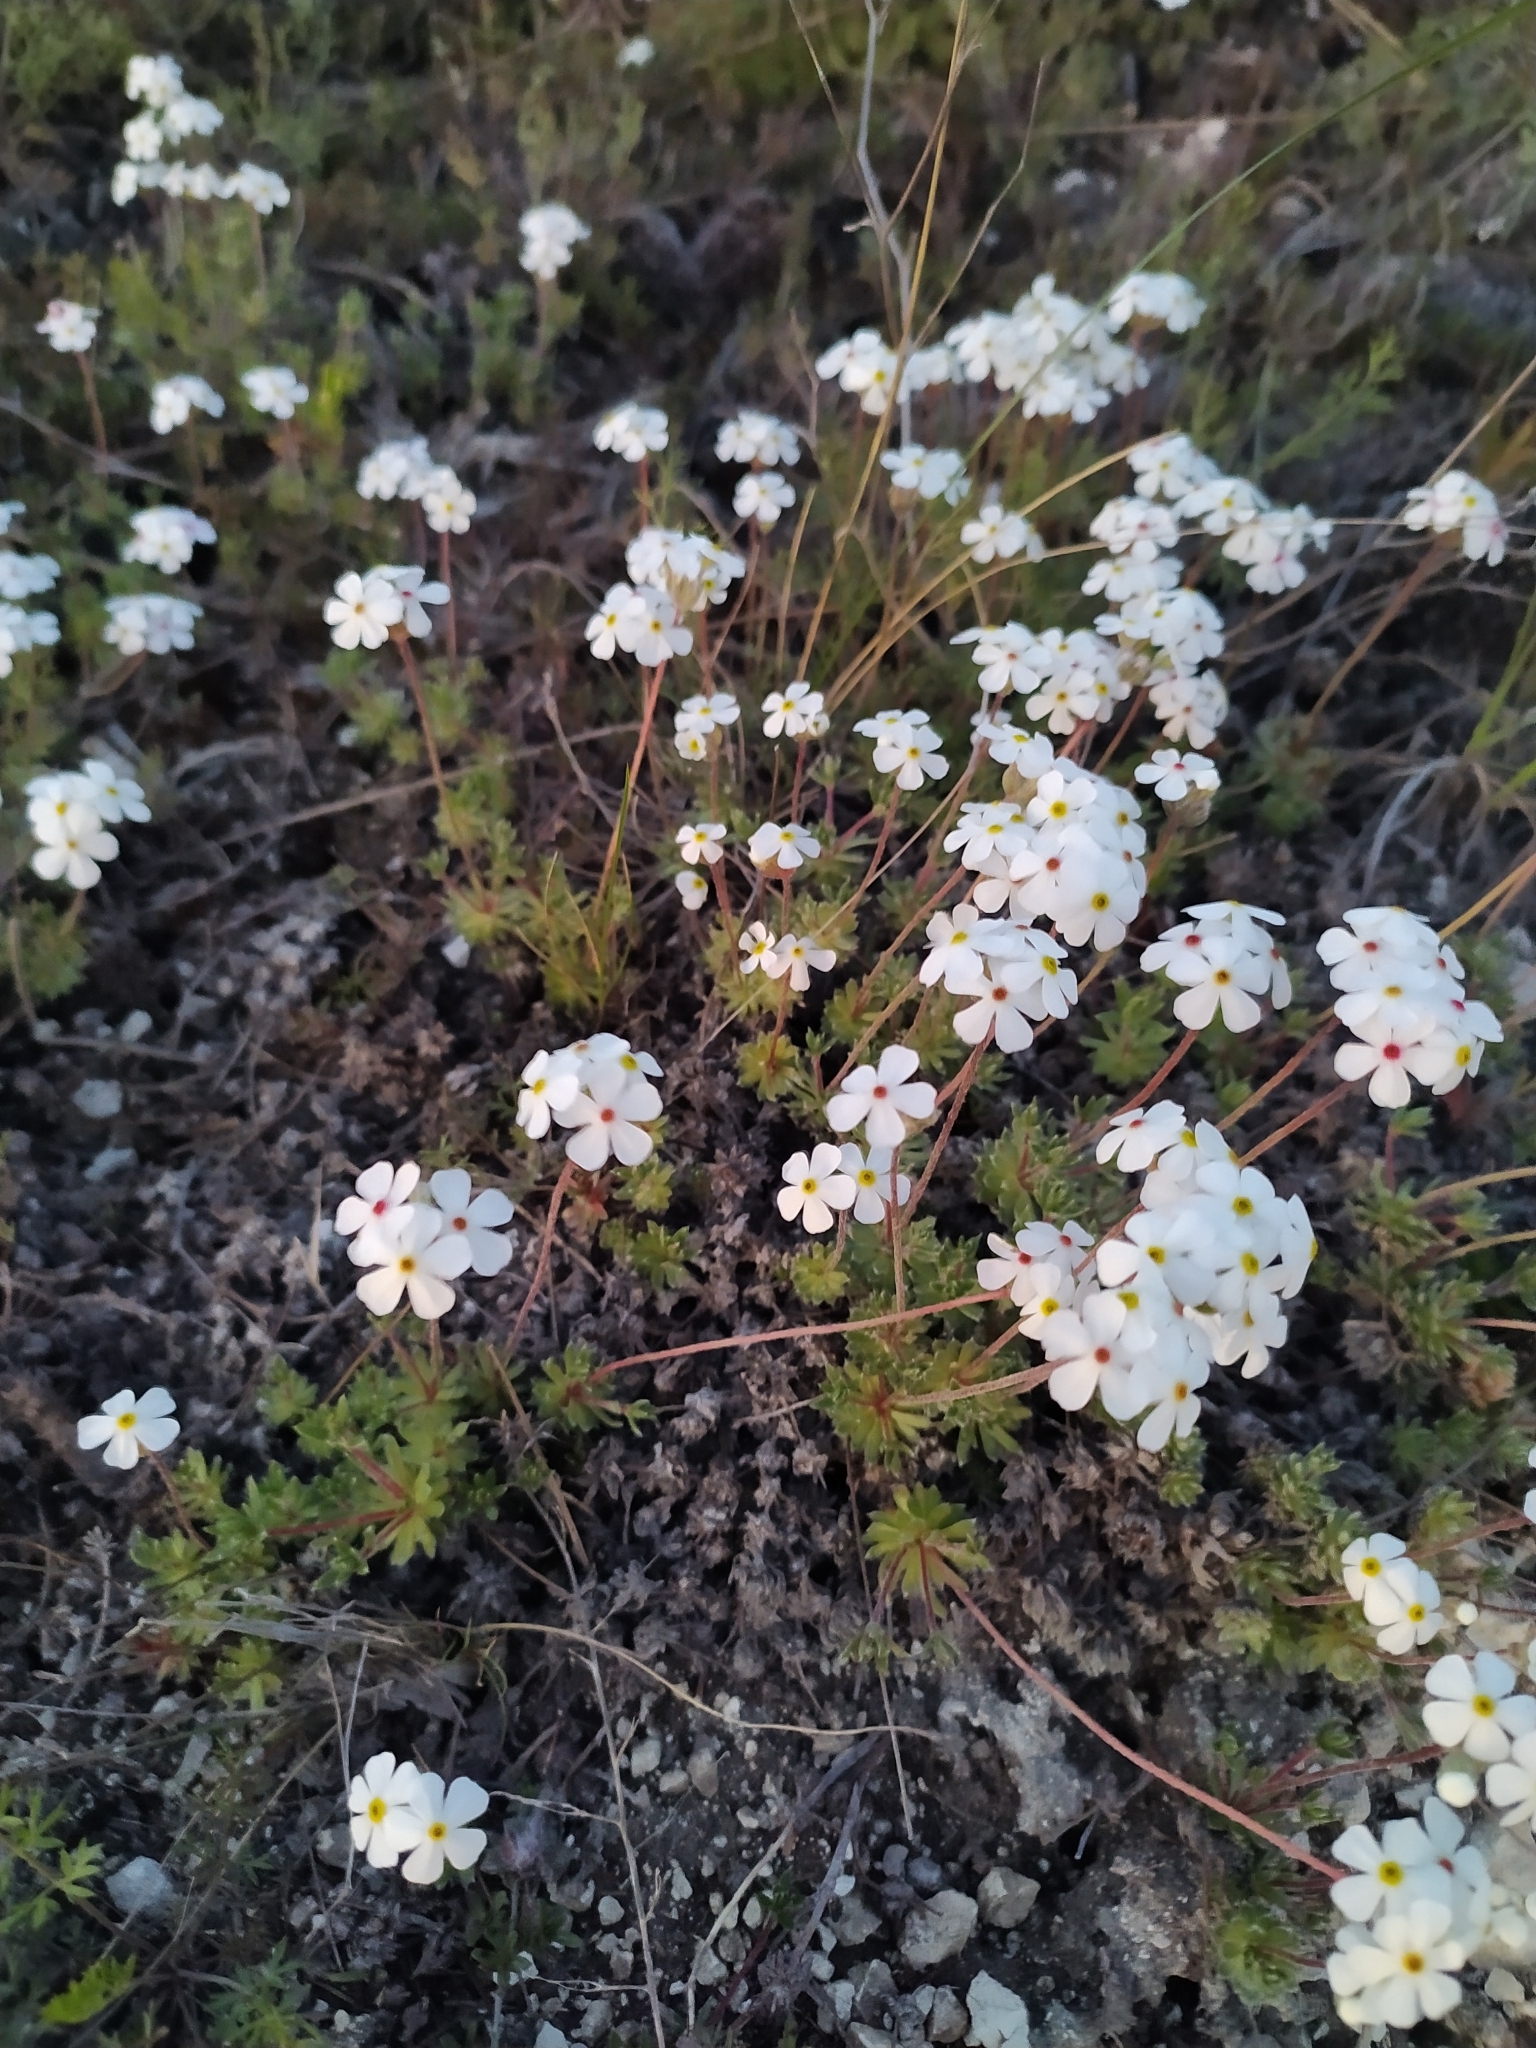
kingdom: Plantae
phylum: Tracheophyta
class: Magnoliopsida
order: Ericales
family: Primulaceae
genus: Androsace
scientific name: Androsace villosa
